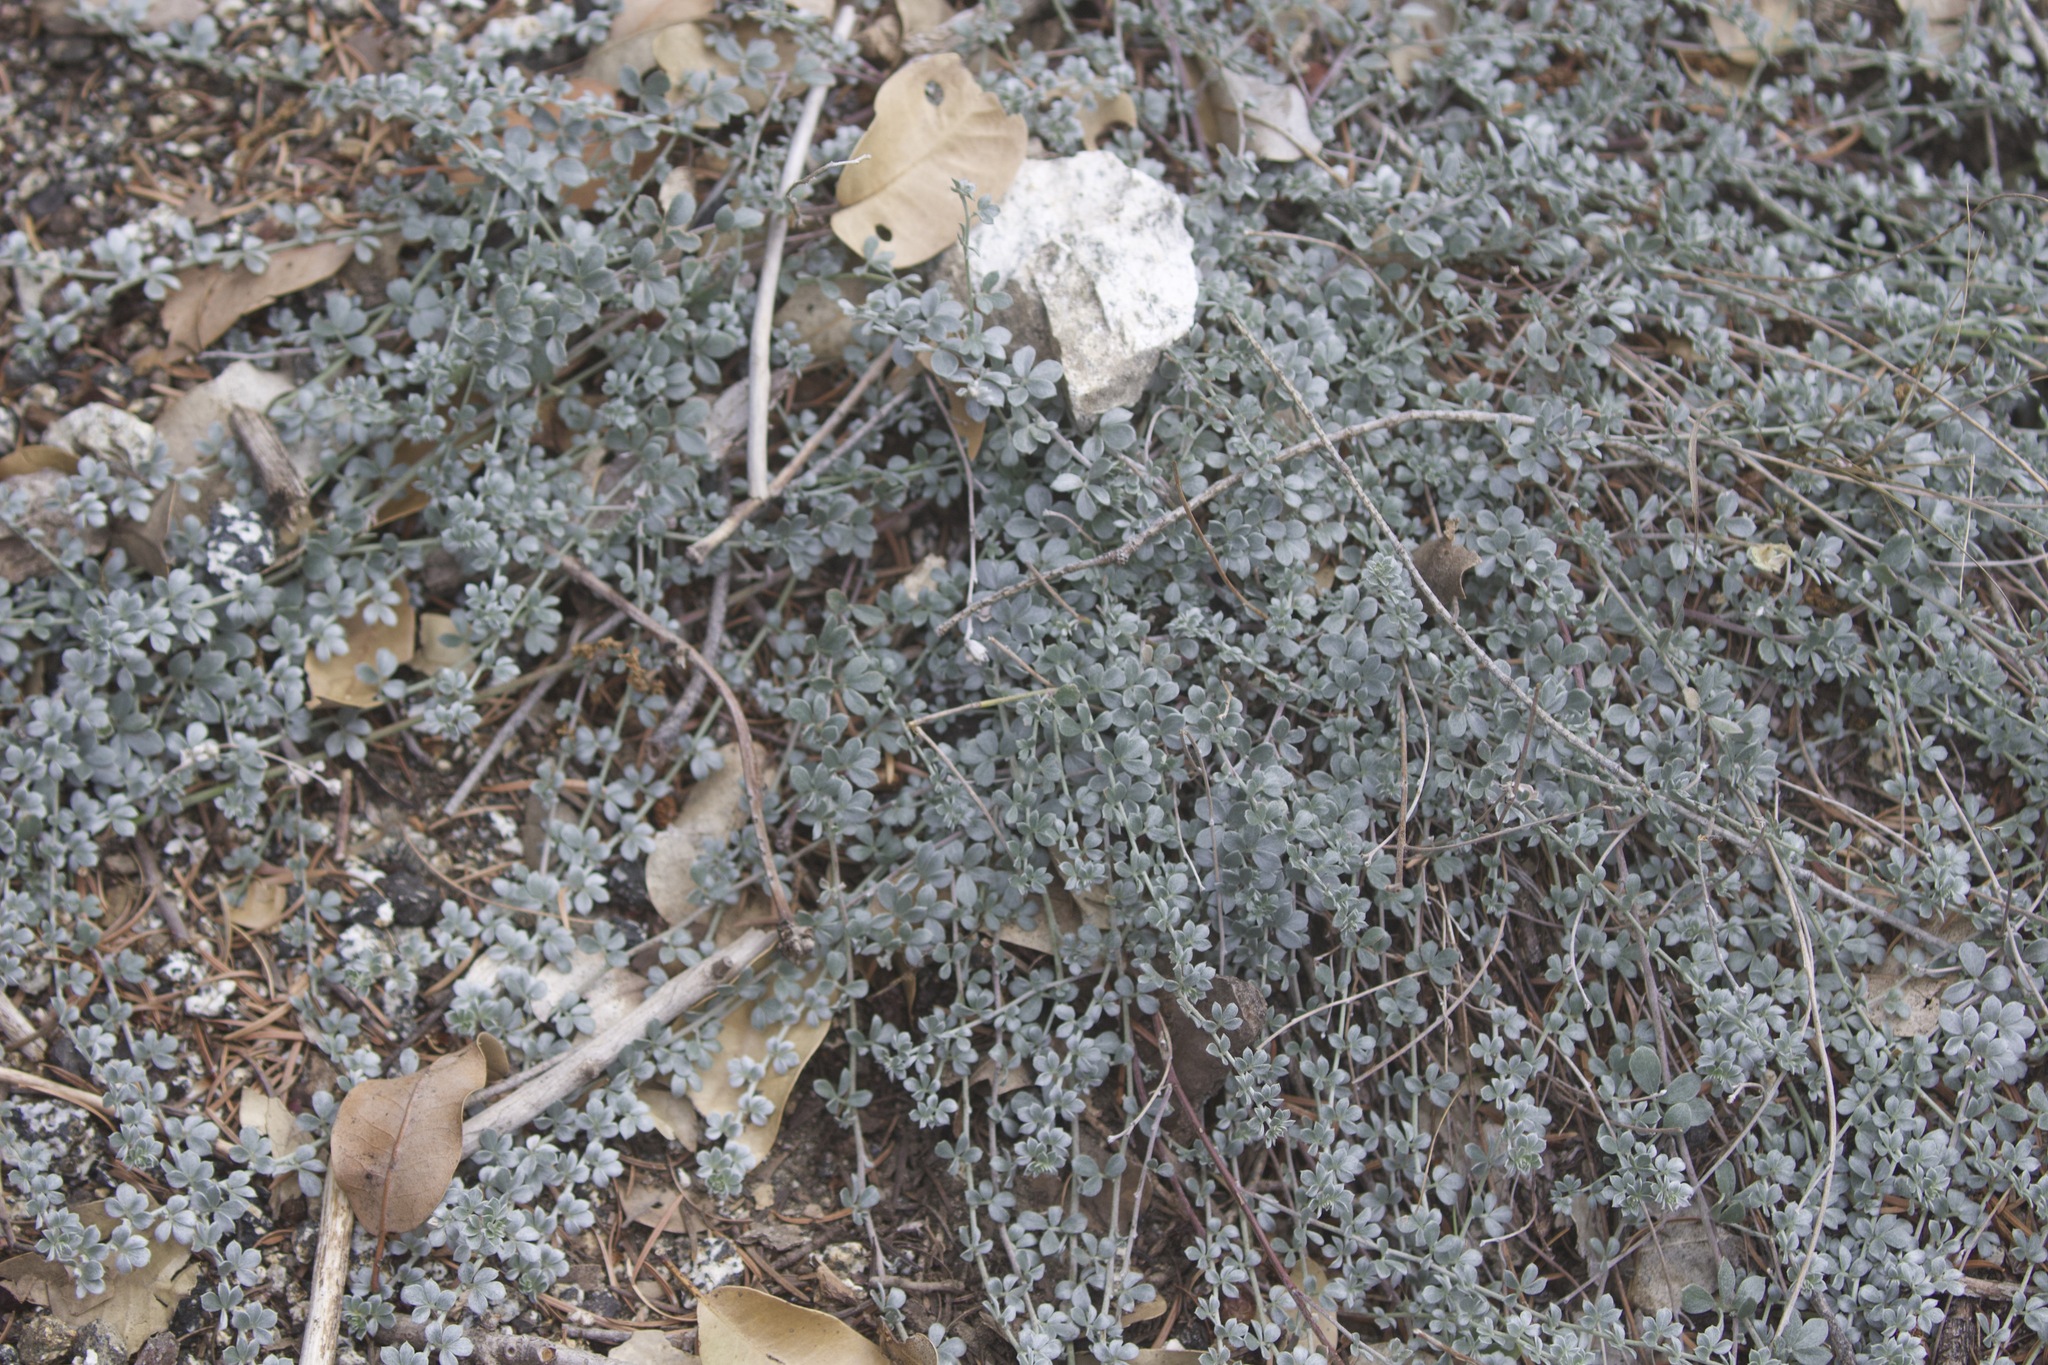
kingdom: Plantae
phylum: Tracheophyta
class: Magnoliopsida
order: Fabales
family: Fabaceae
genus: Acmispon
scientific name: Acmispon argophyllus
